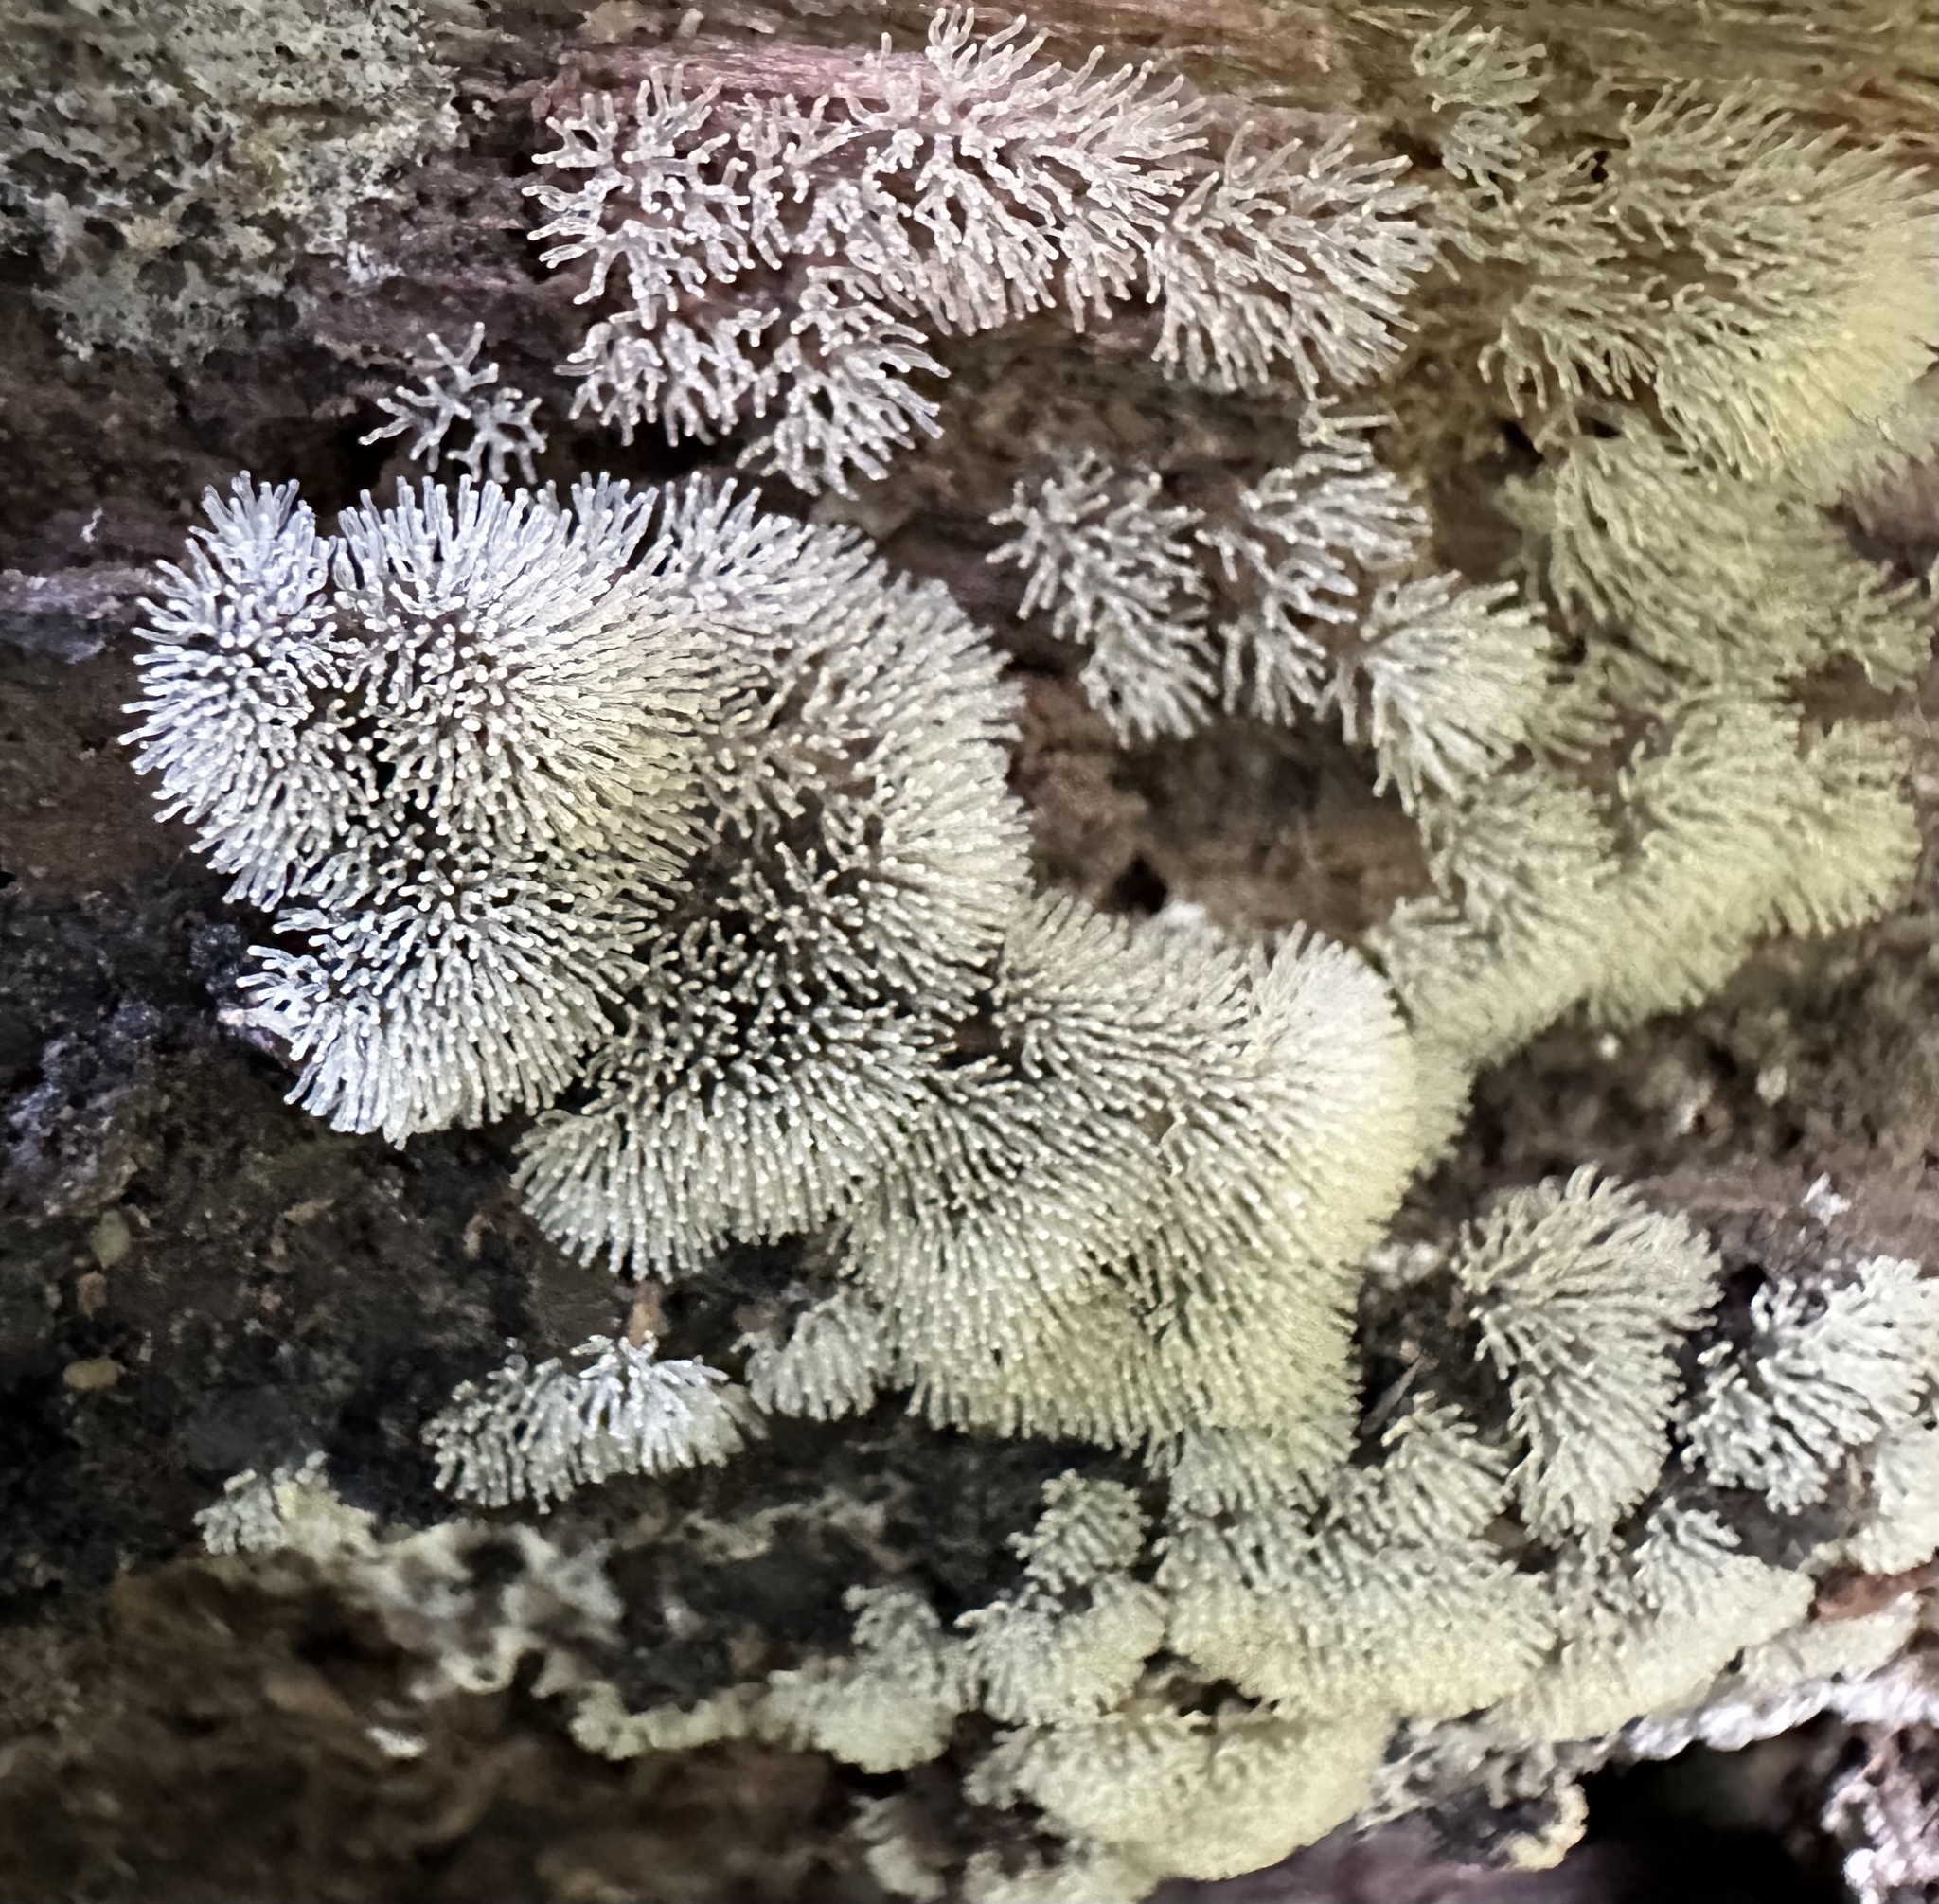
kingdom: Protozoa
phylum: Mycetozoa
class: Protosteliomycetes
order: Ceratiomyxales
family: Ceratiomyxaceae
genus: Ceratiomyxa
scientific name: Ceratiomyxa fruticulosa
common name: Honeycomb coral slime mold
